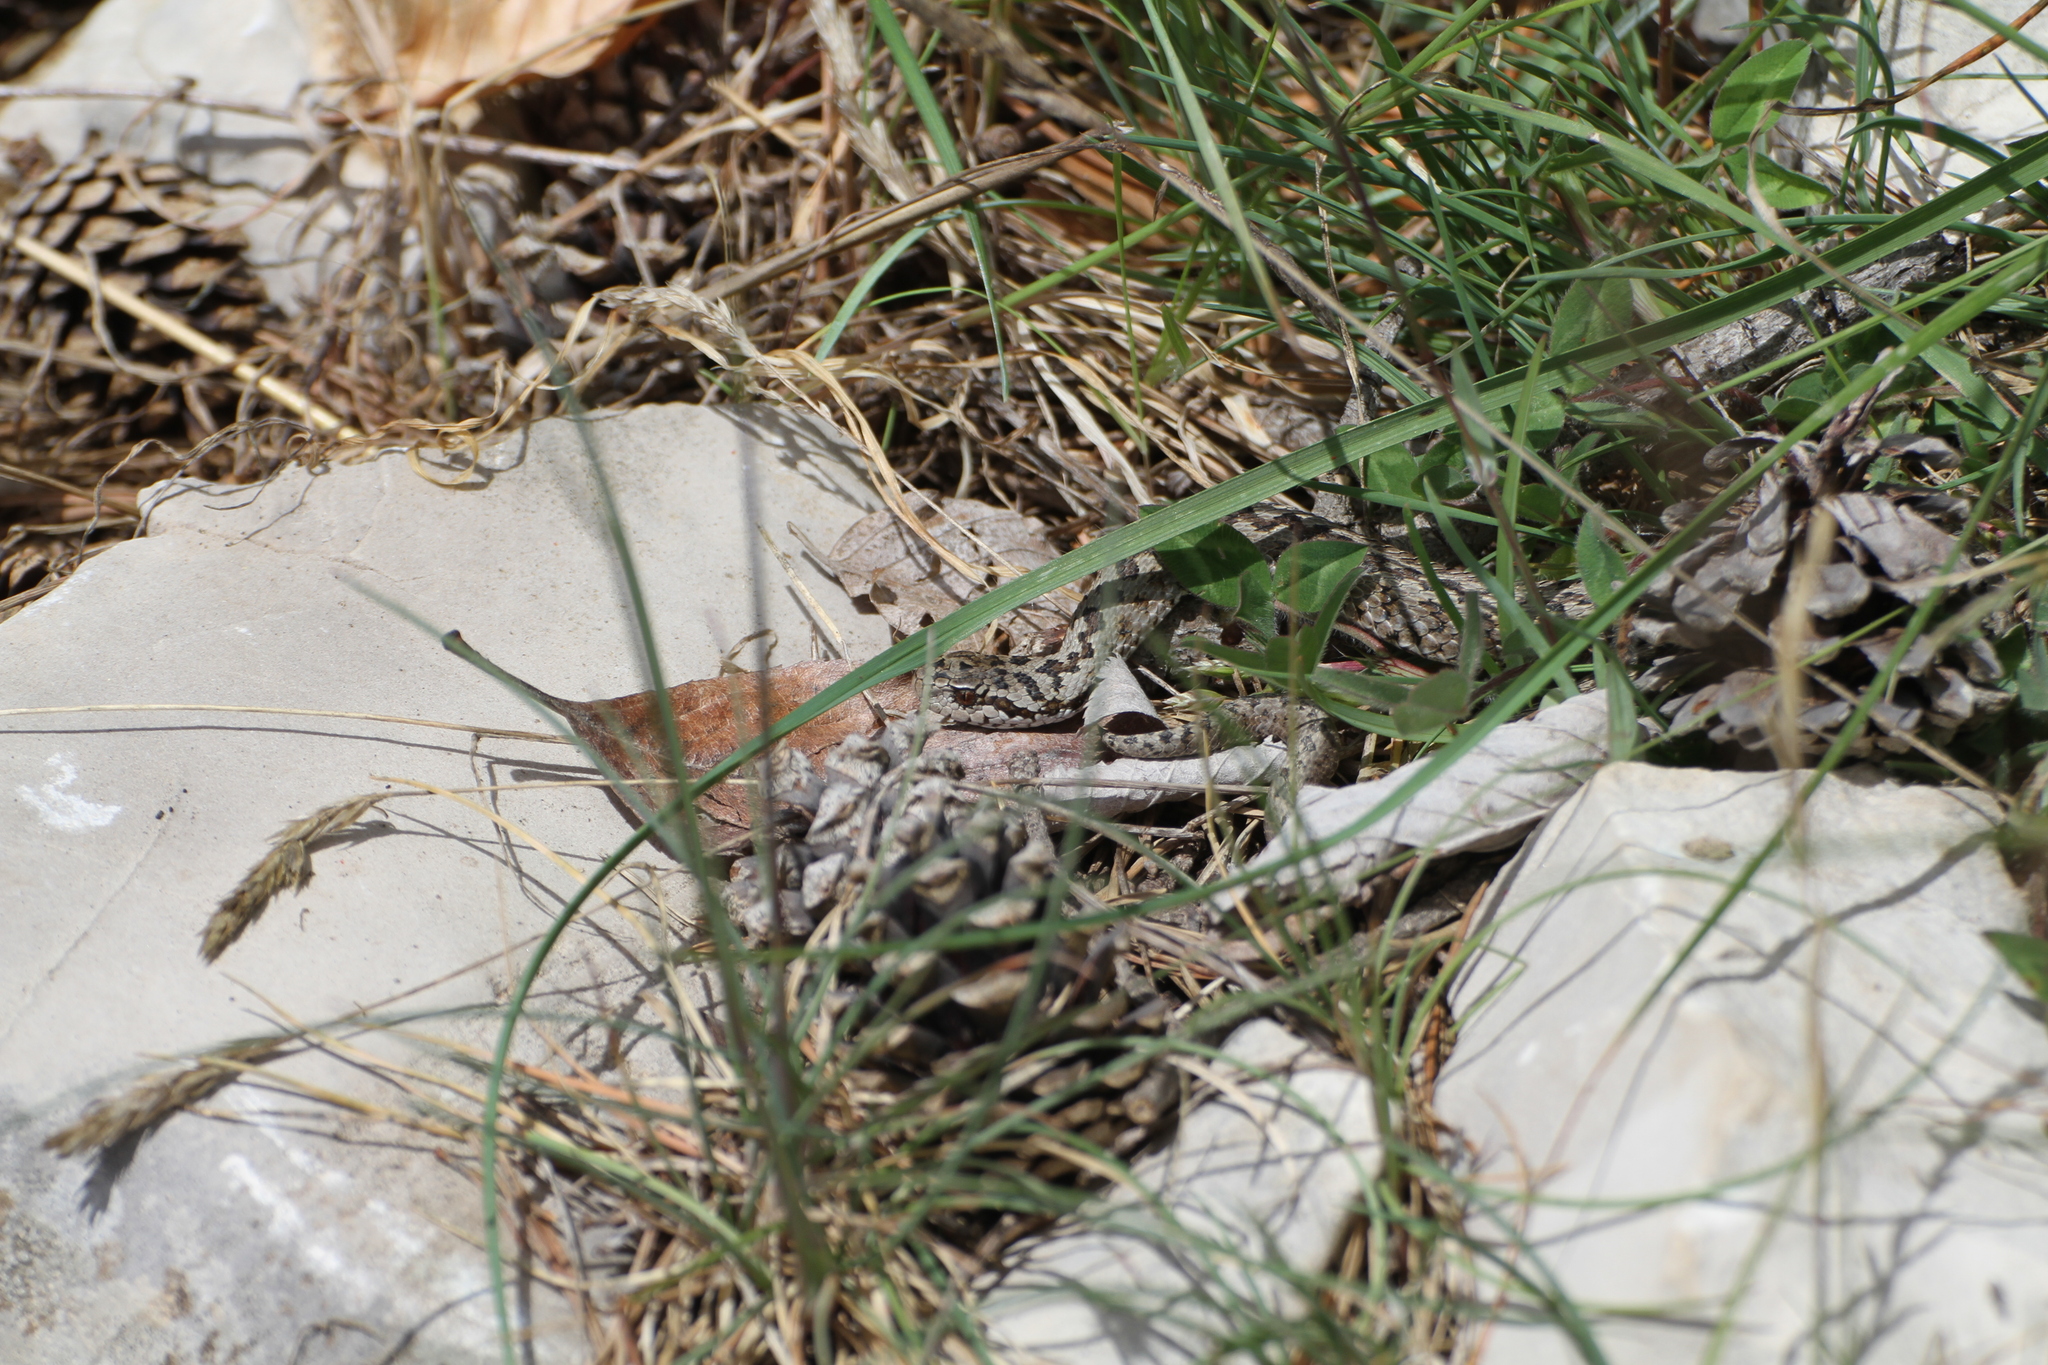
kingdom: Animalia
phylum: Chordata
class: Squamata
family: Viperidae
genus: Vipera
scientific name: Vipera ursinii
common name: Meadow viper
